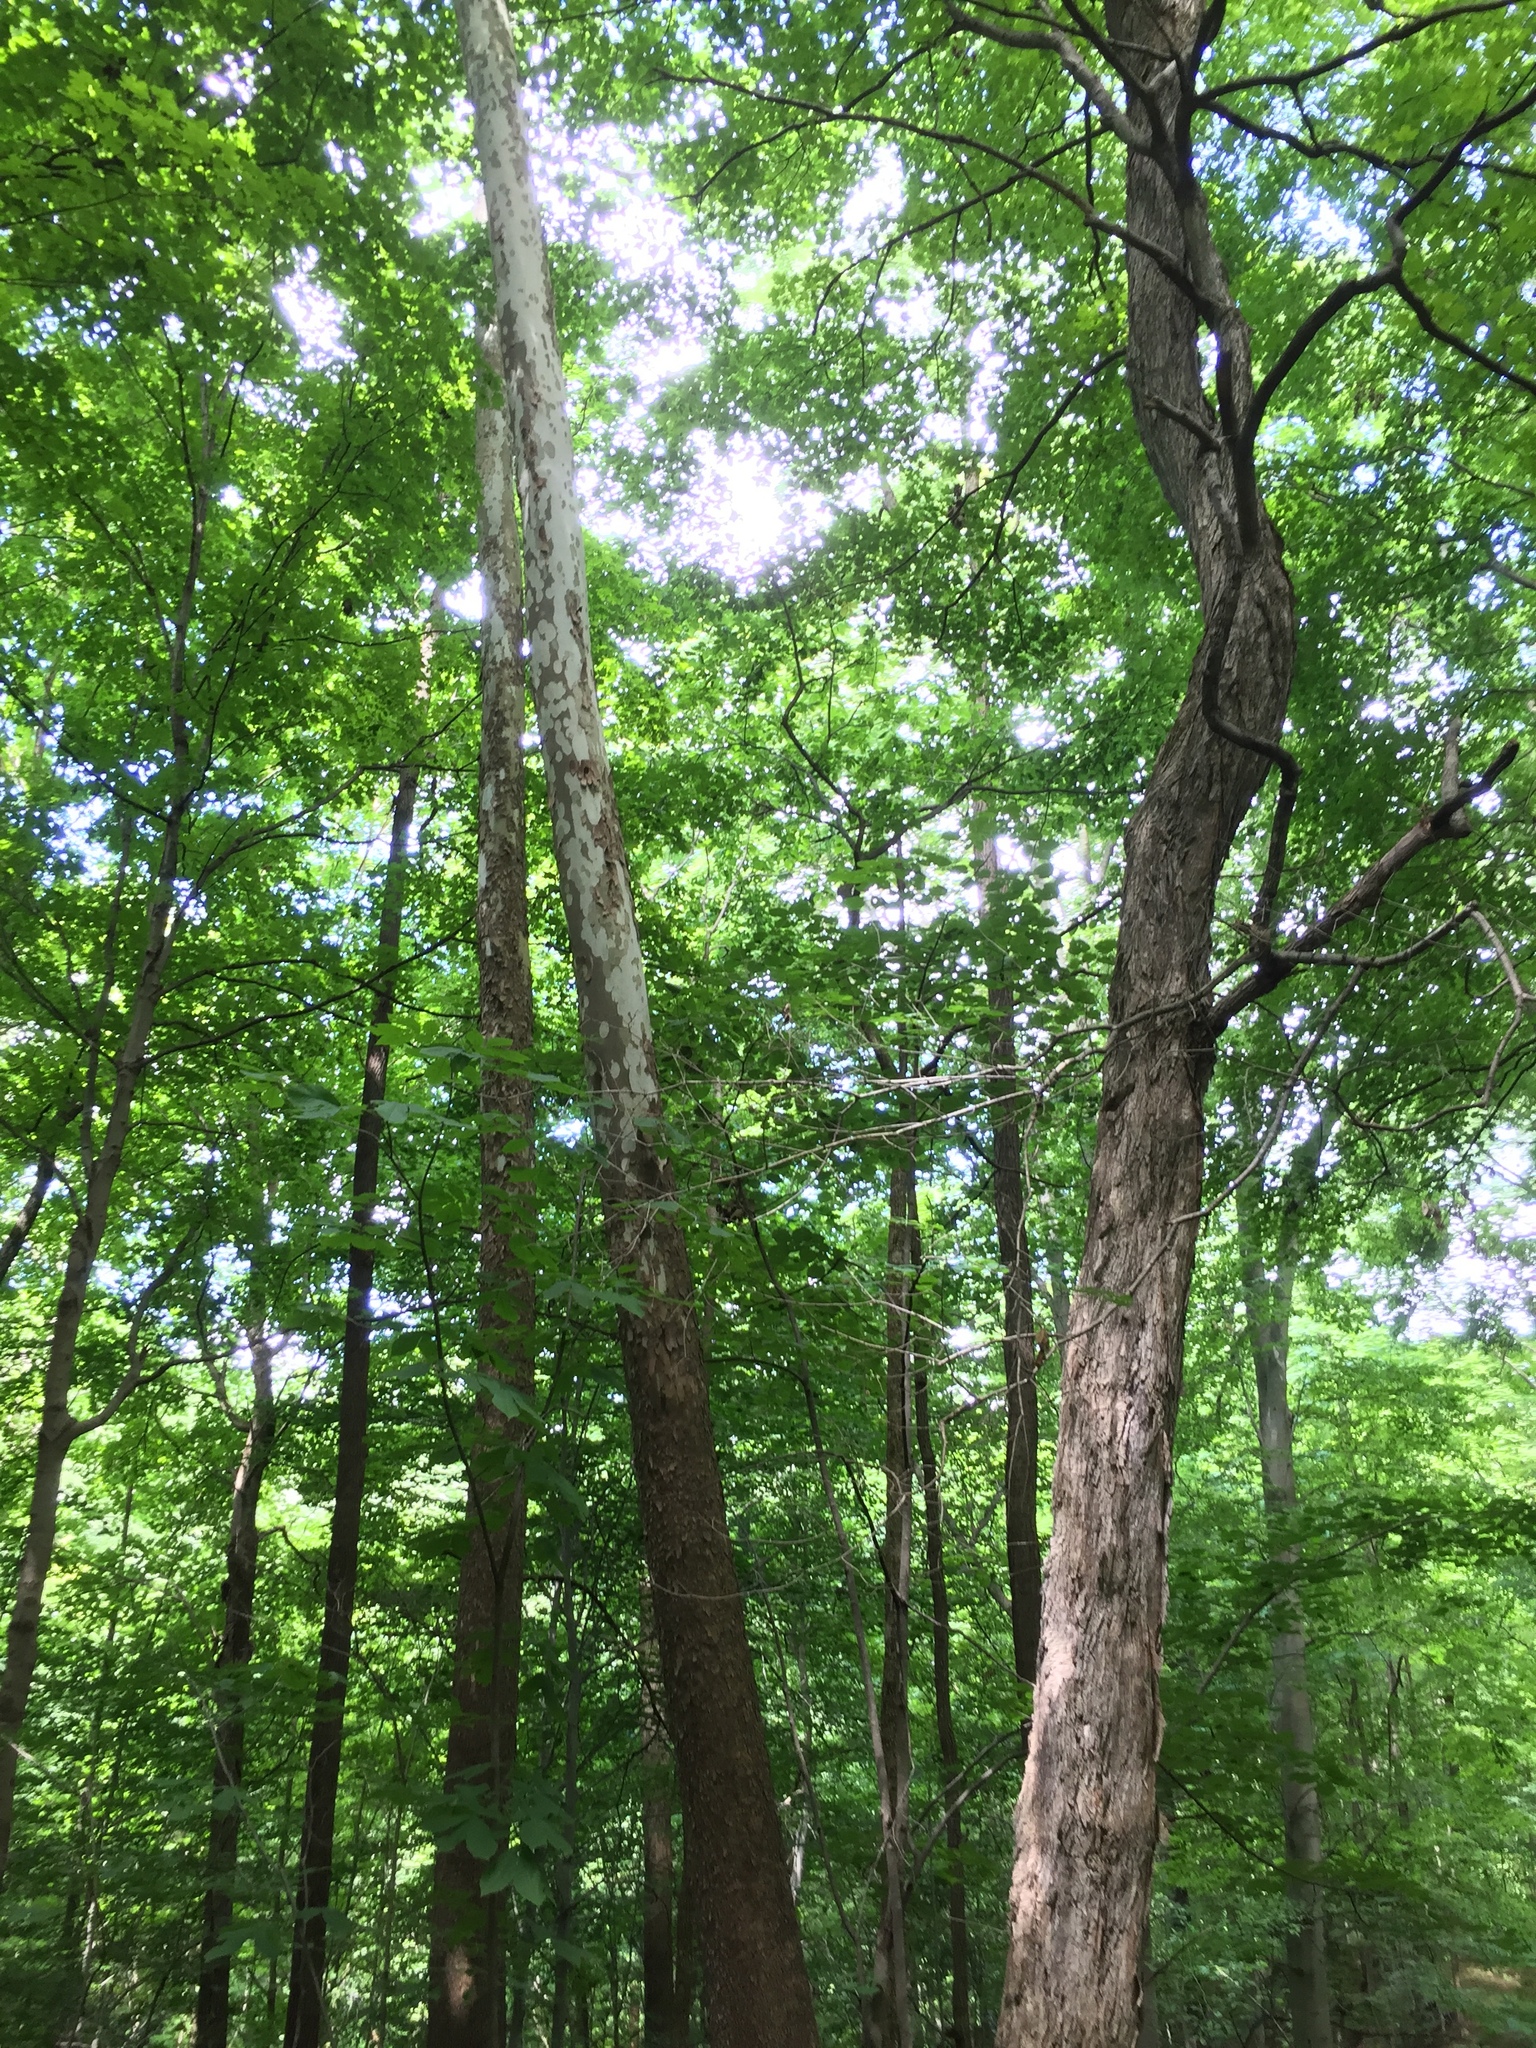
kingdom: Plantae
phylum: Tracheophyta
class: Magnoliopsida
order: Proteales
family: Platanaceae
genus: Platanus
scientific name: Platanus occidentalis
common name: American sycamore
